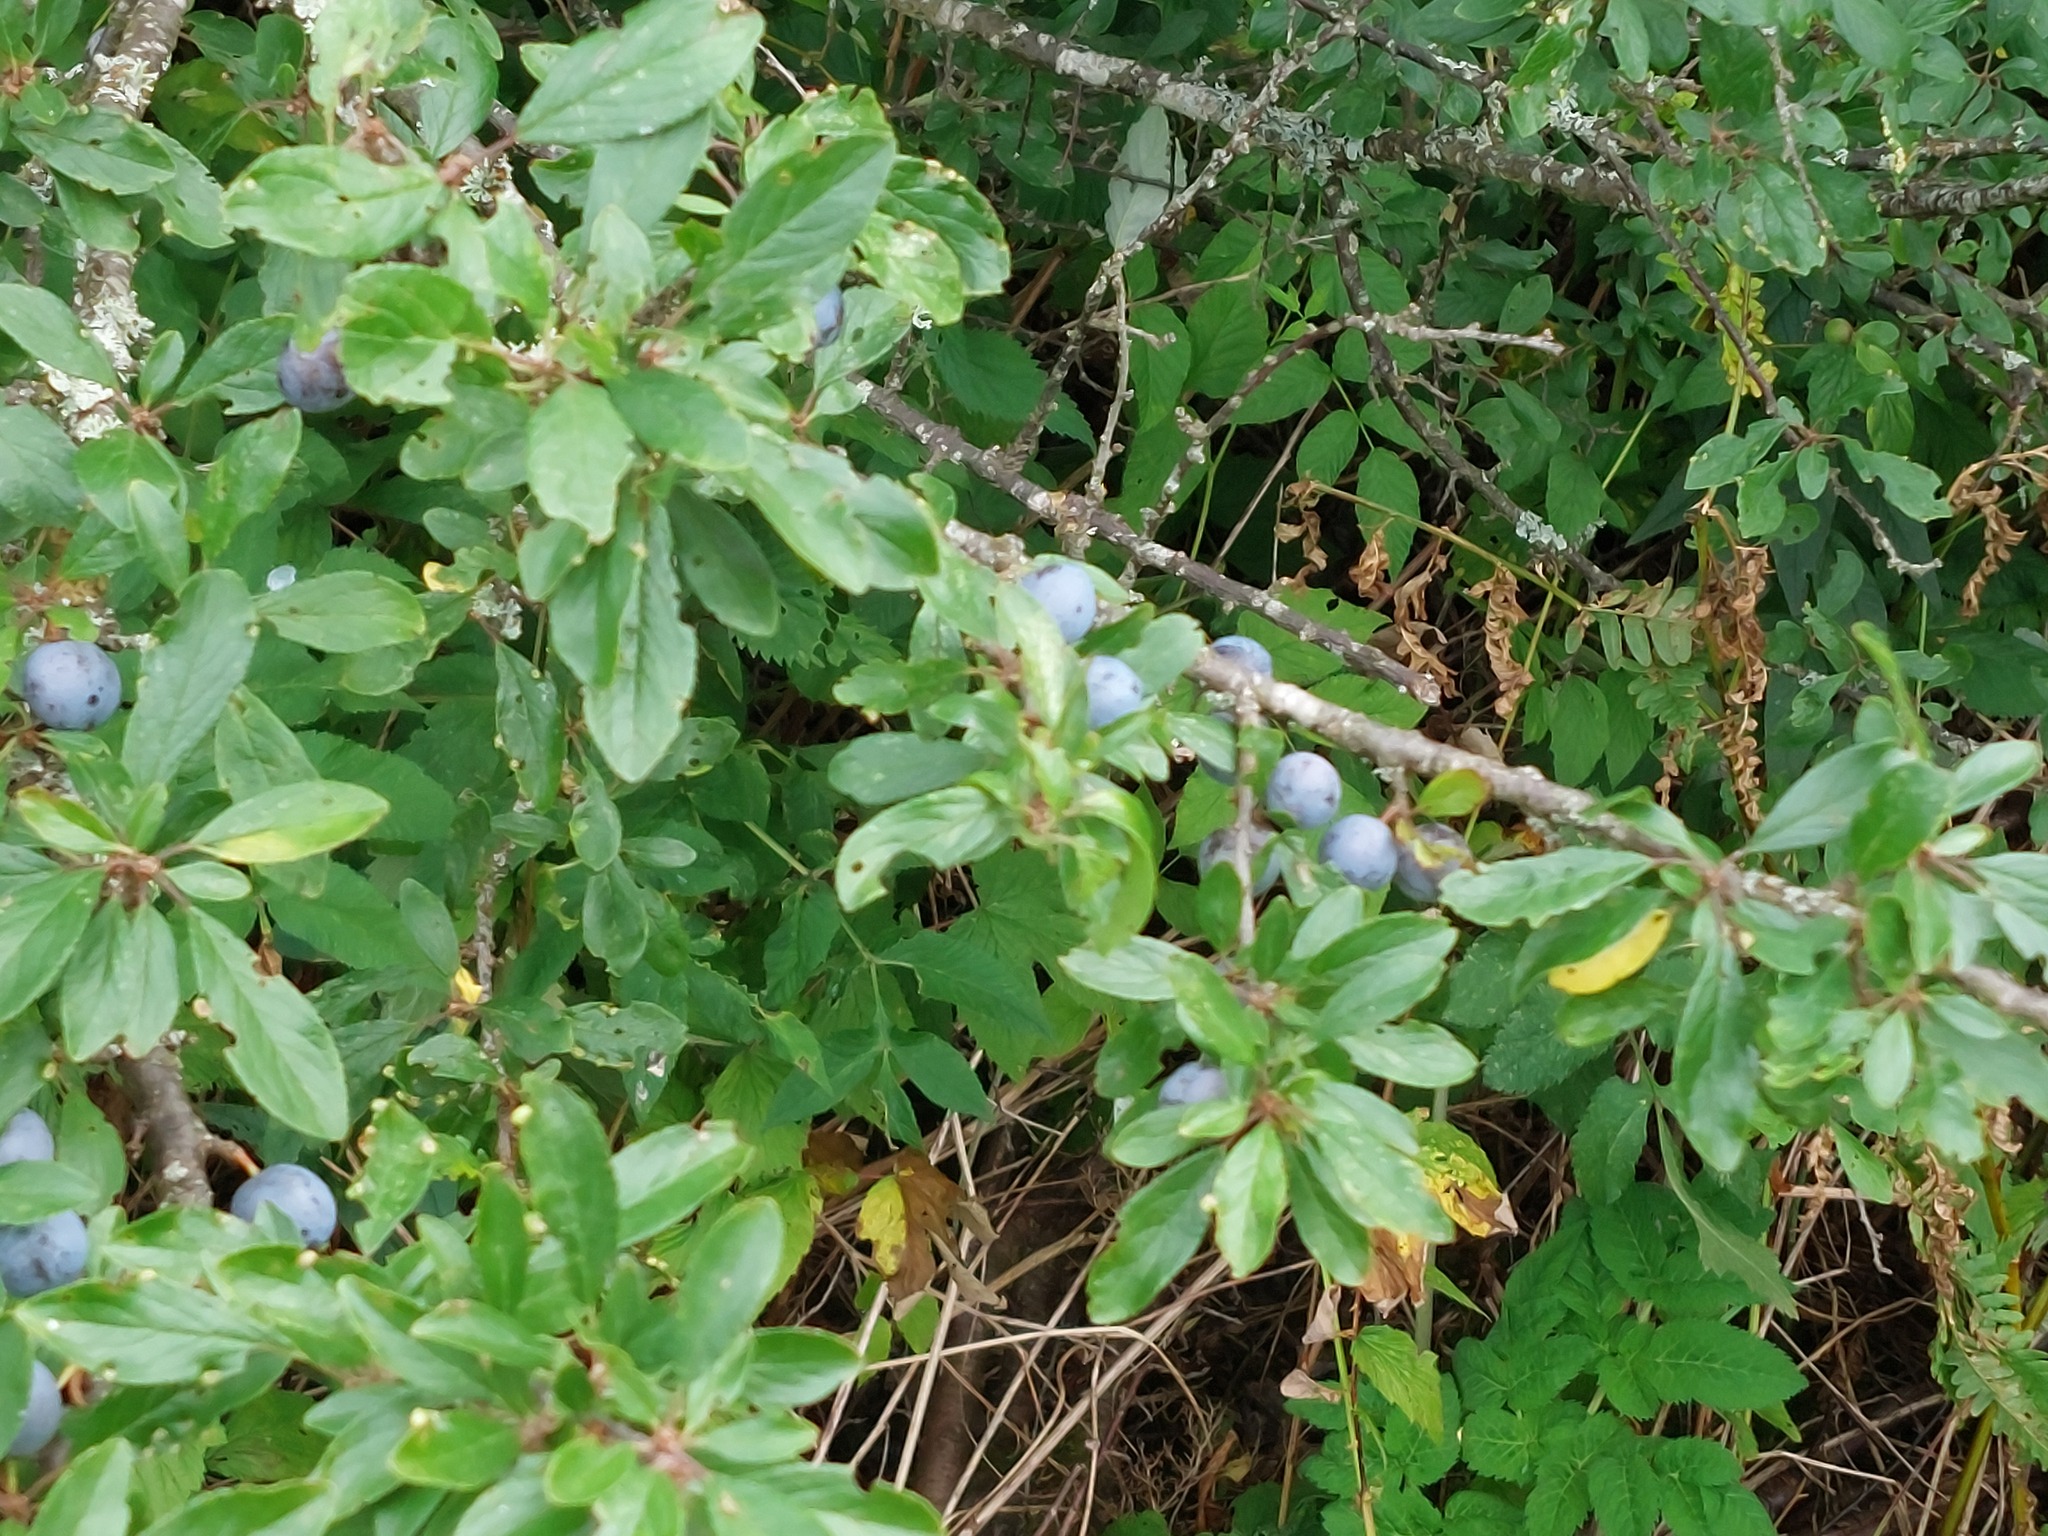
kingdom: Plantae
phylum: Tracheophyta
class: Magnoliopsida
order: Rosales
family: Rosaceae
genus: Prunus
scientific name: Prunus spinosa
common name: Blackthorn
